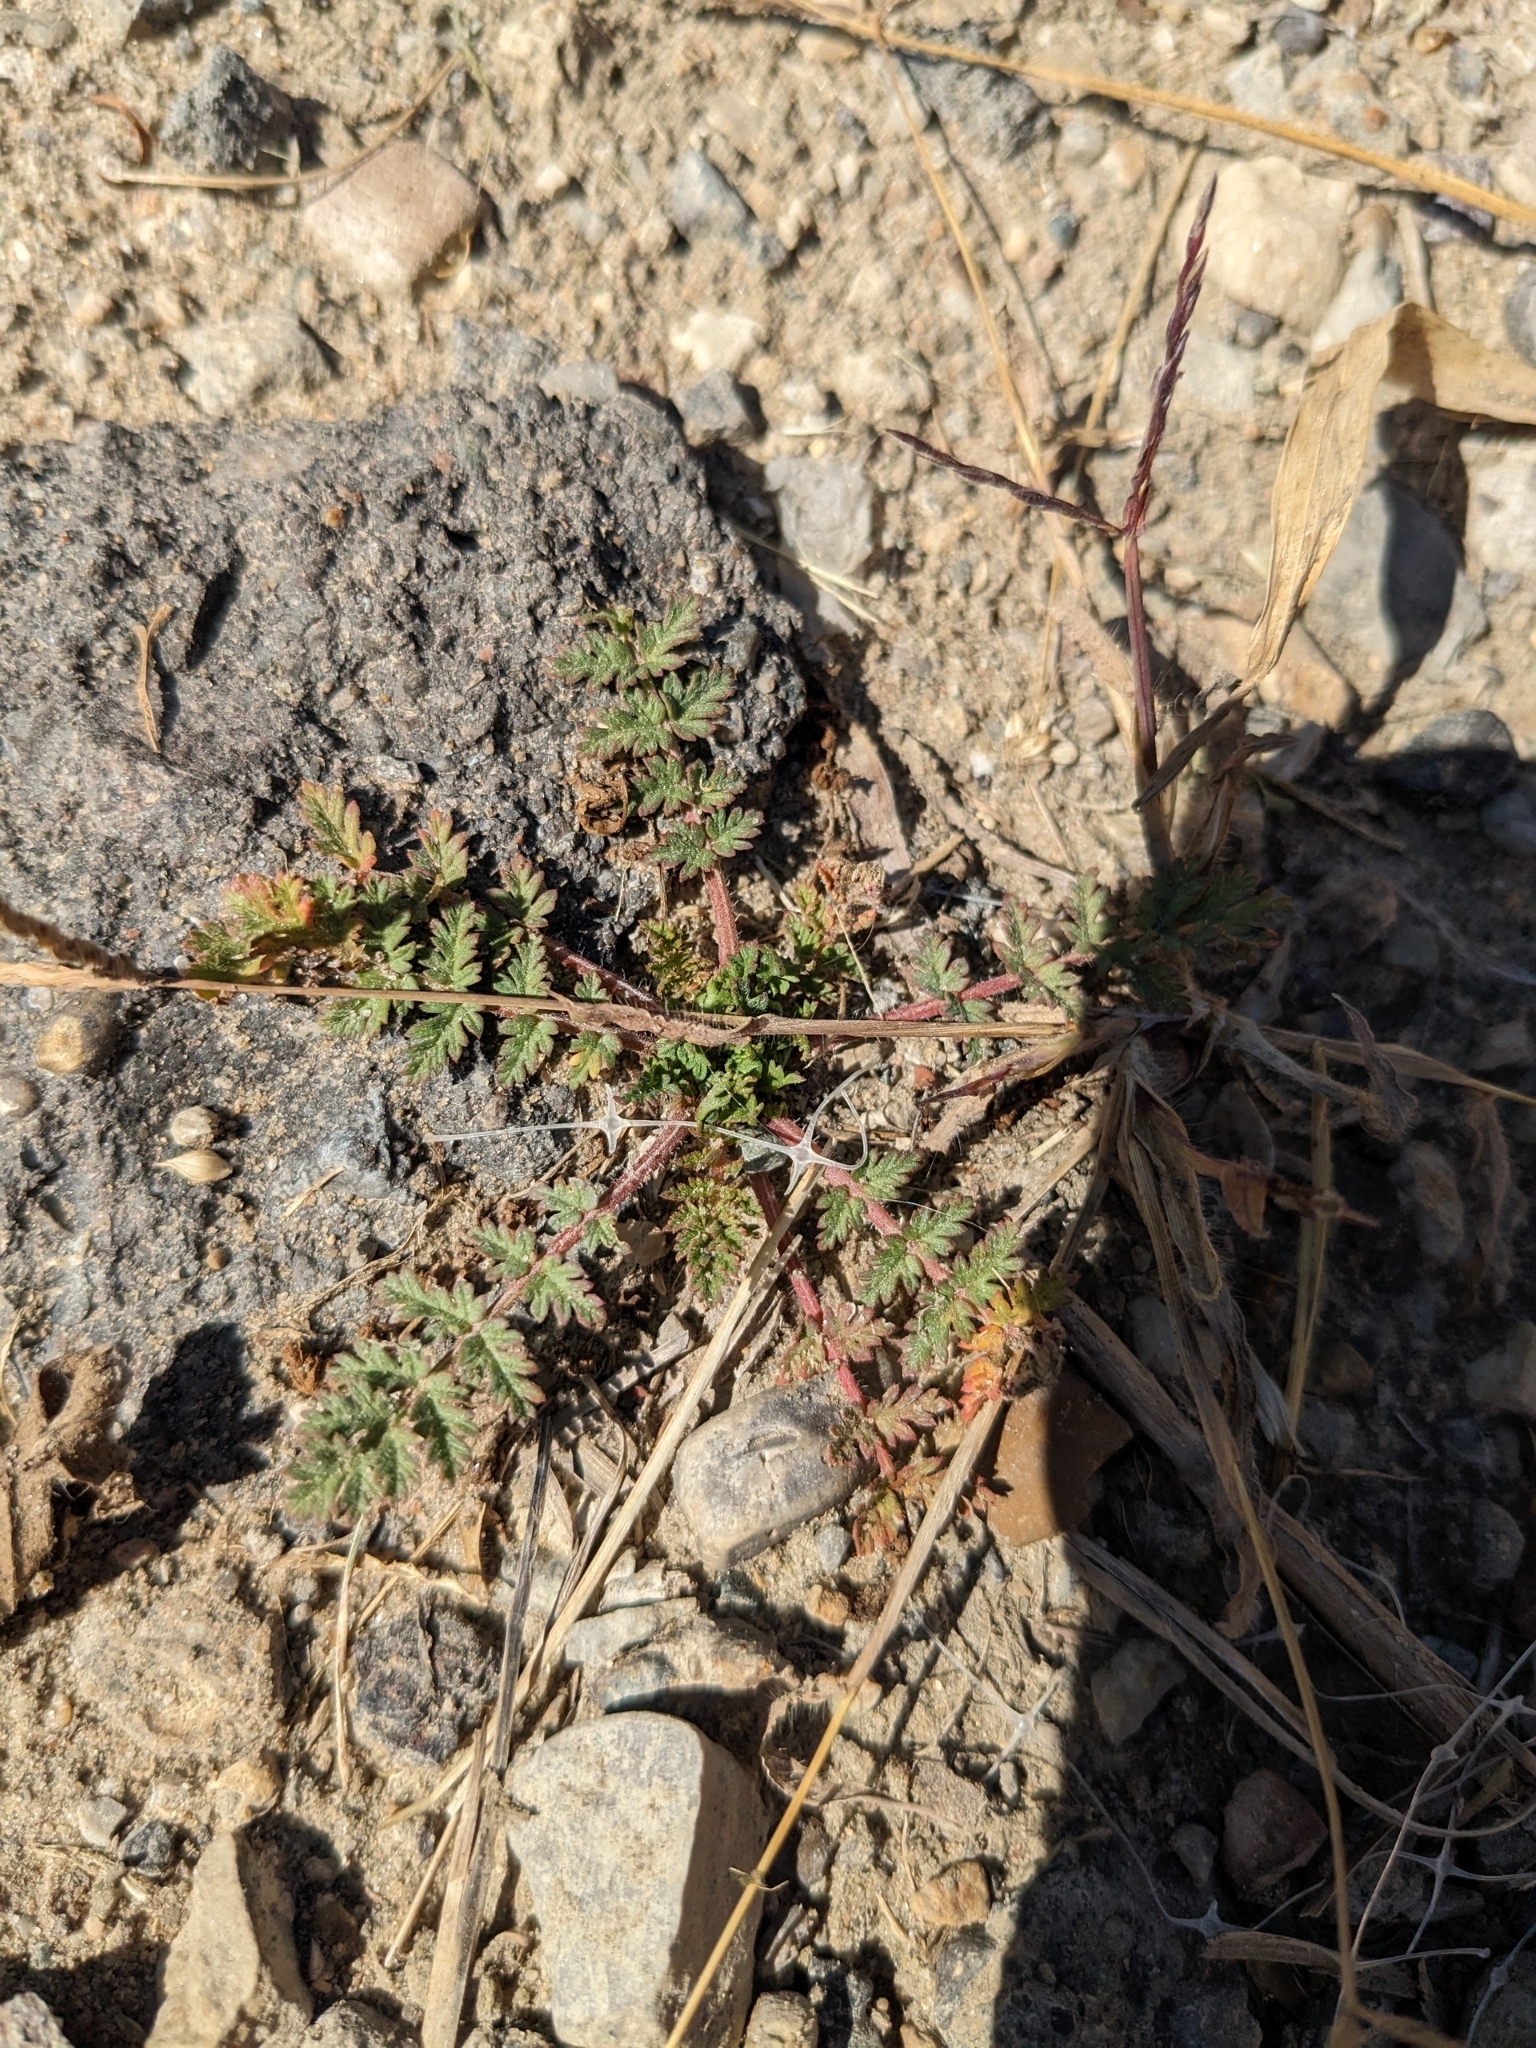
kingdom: Plantae
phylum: Tracheophyta
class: Magnoliopsida
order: Geraniales
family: Geraniaceae
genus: Erodium
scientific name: Erodium cicutarium
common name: Common stork's-bill
